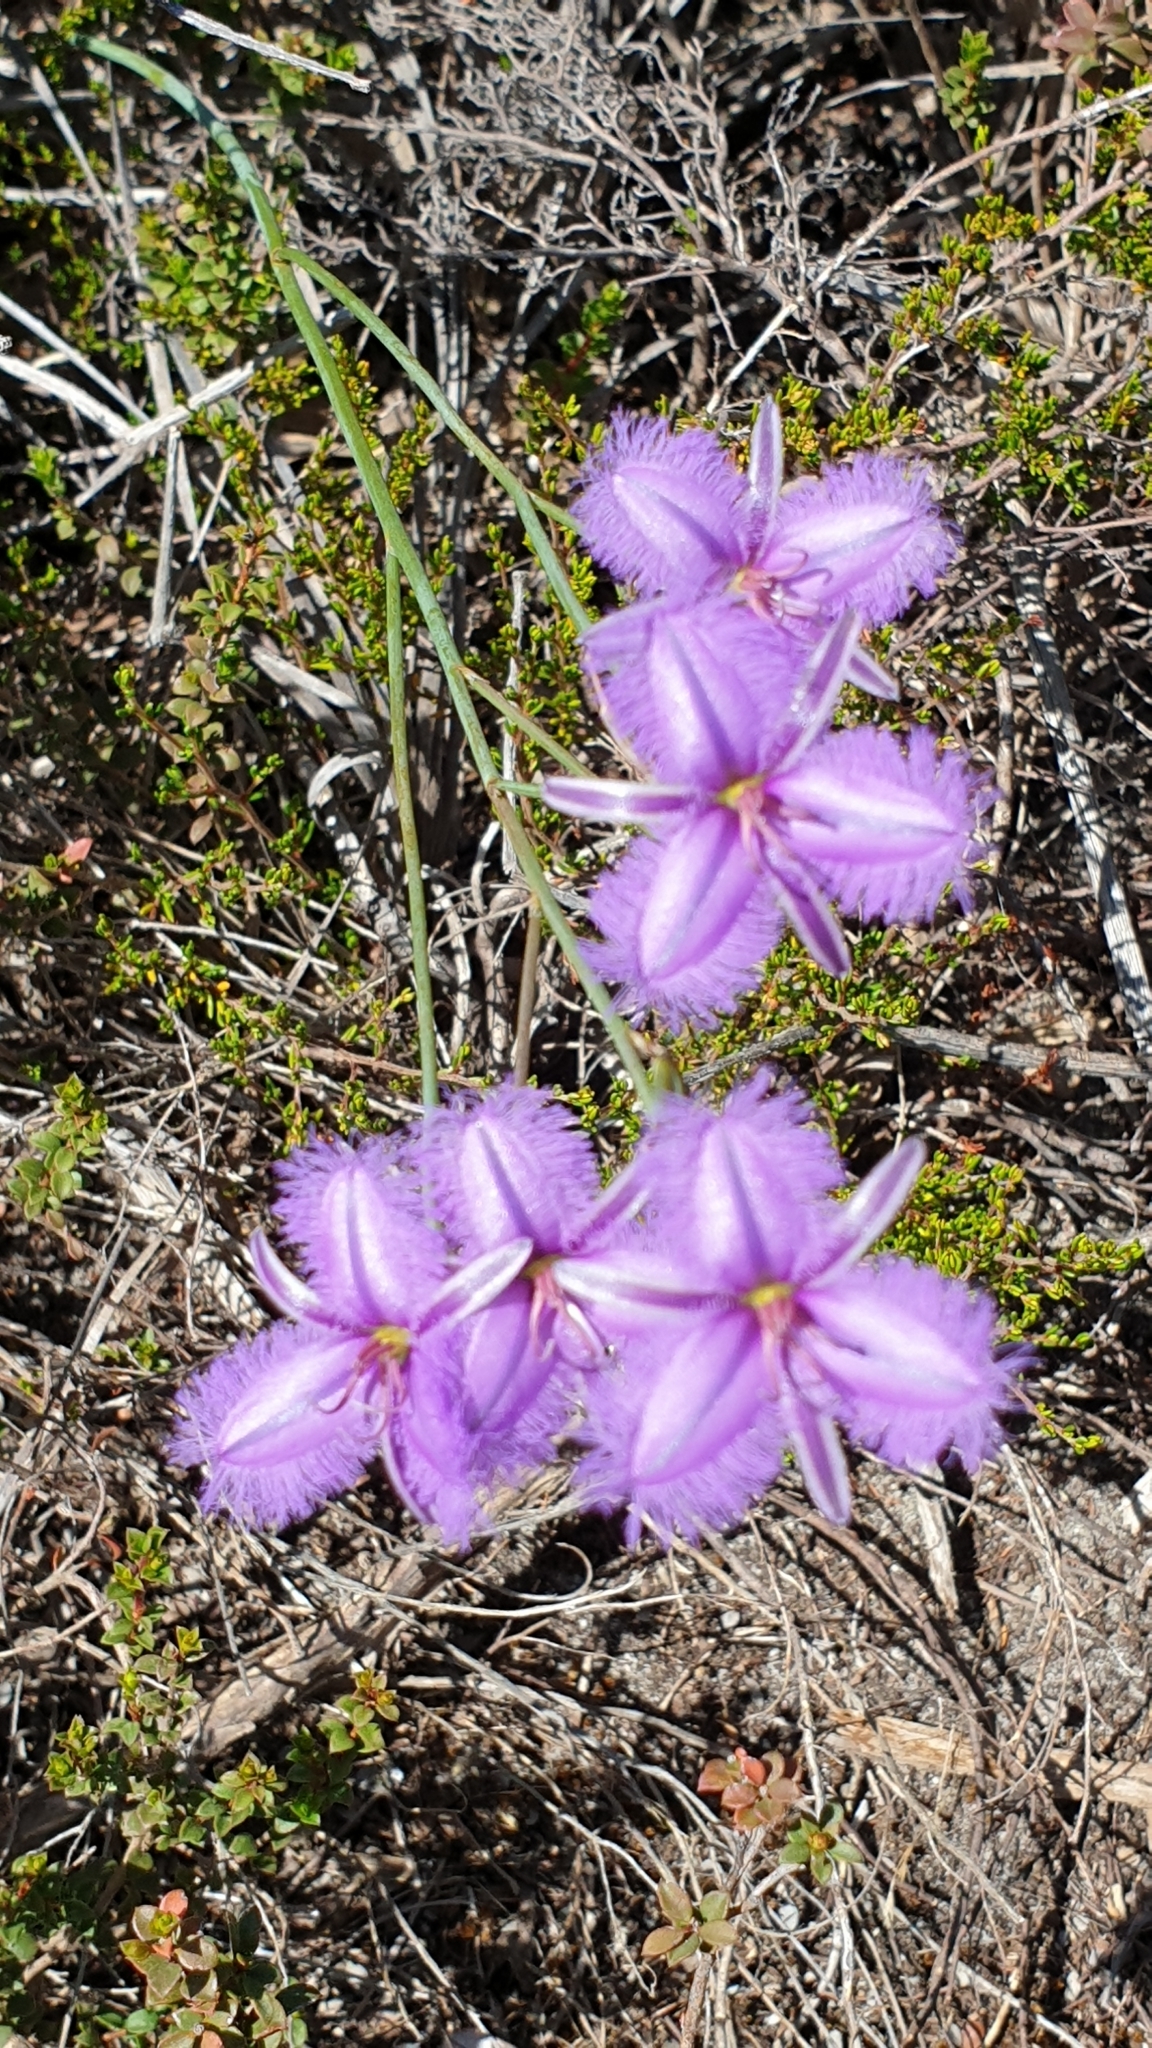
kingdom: Plantae
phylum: Tracheophyta
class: Liliopsida
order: Asparagales
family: Asparagaceae
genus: Thysanotus
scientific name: Thysanotus racemoides
